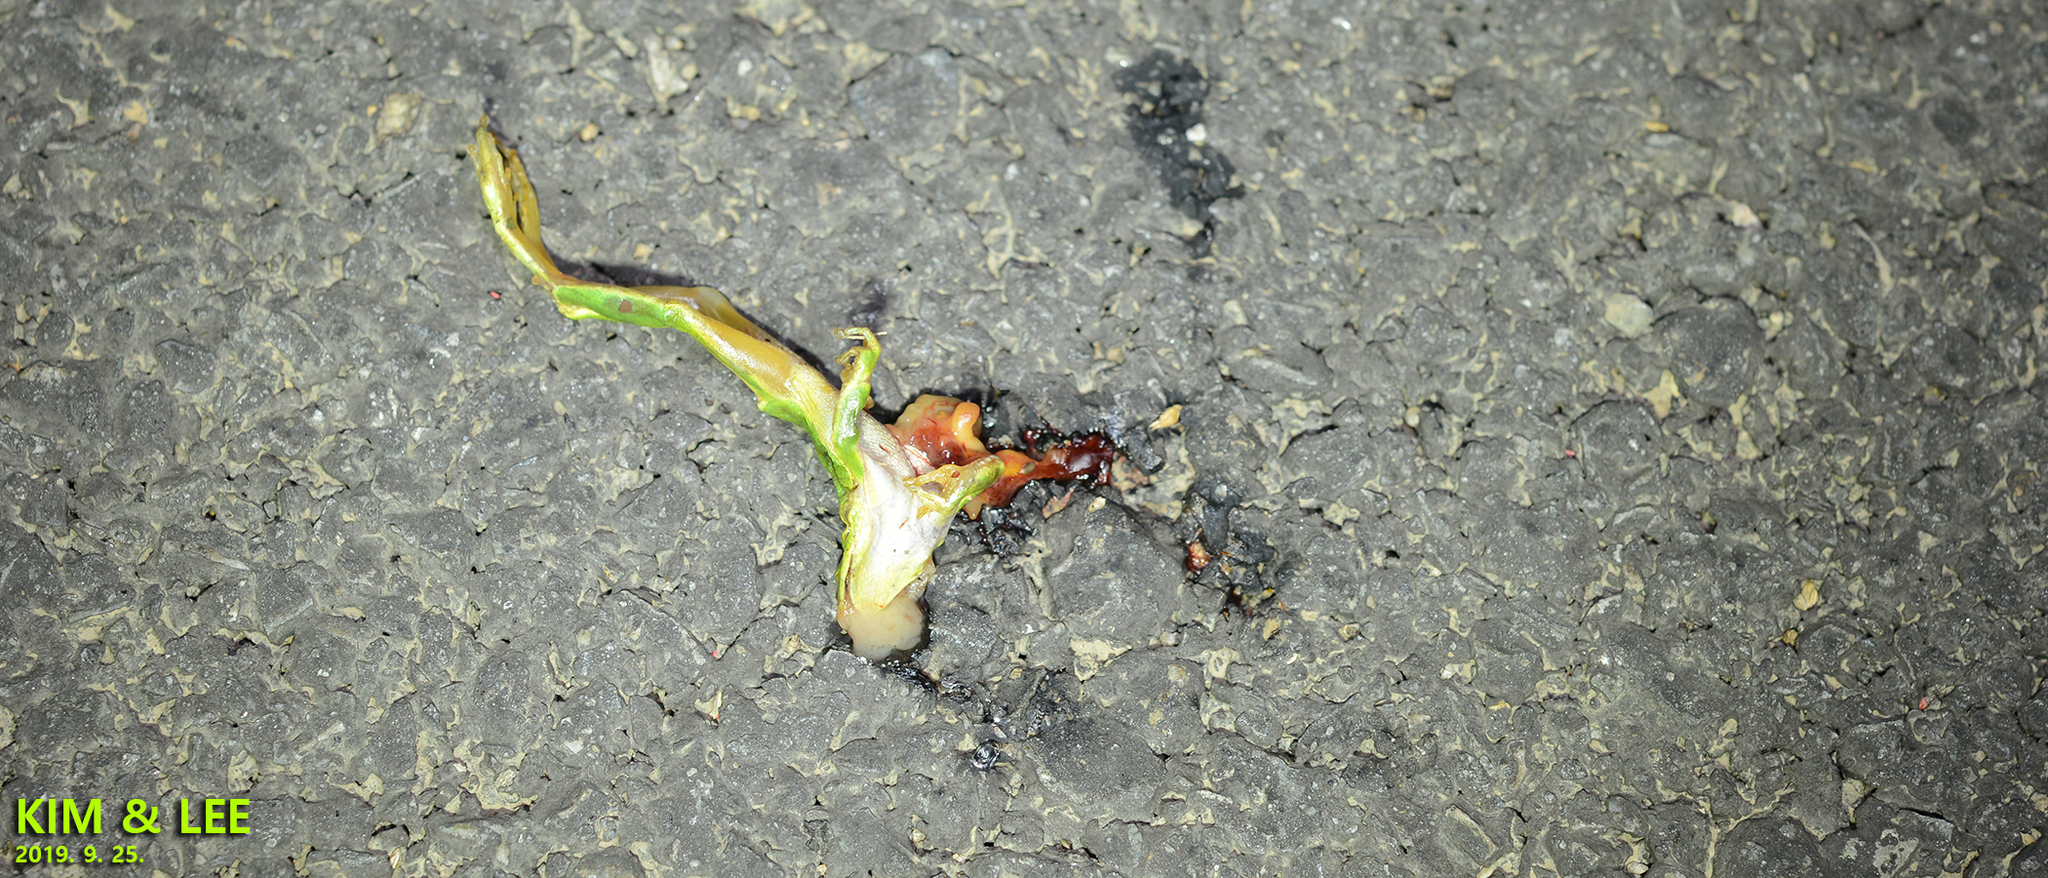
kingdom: Animalia
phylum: Chordata
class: Amphibia
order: Anura
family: Hylidae
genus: Dryophytes
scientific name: Dryophytes japonicus
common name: Japanese treefrog
